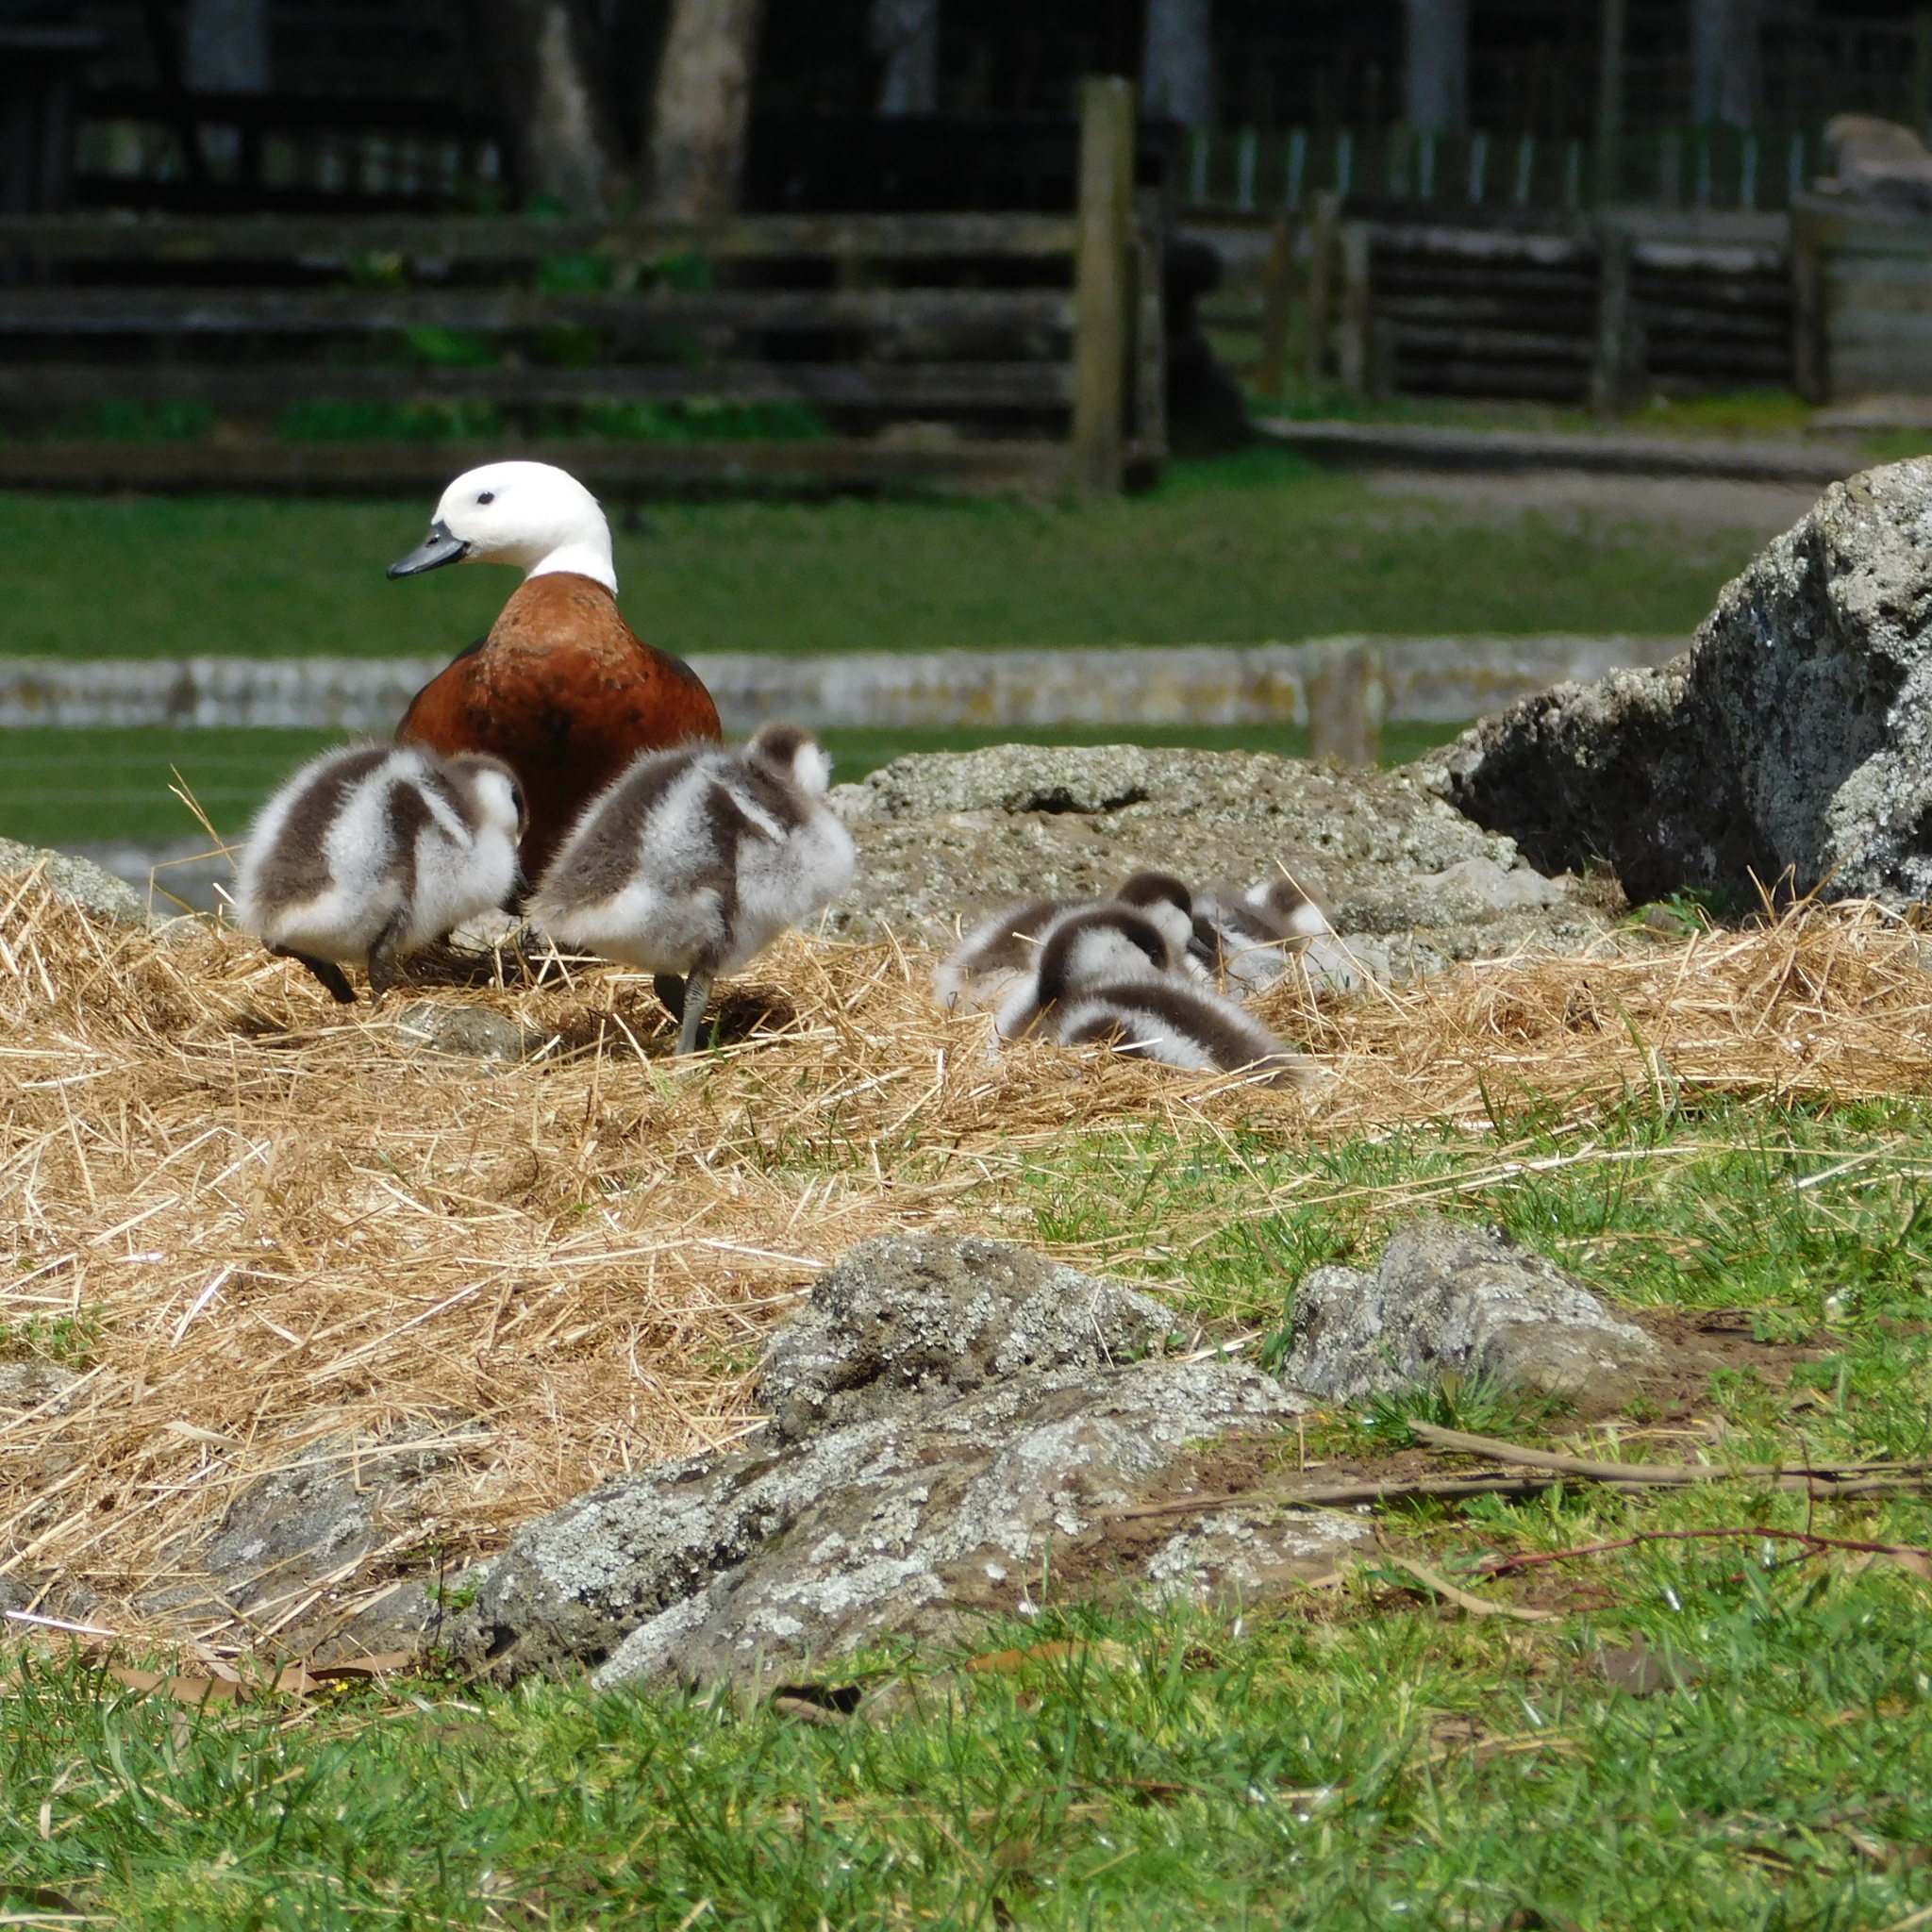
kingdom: Animalia
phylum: Chordata
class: Aves
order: Anseriformes
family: Anatidae
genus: Tadorna
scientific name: Tadorna variegata
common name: Paradise shelduck
